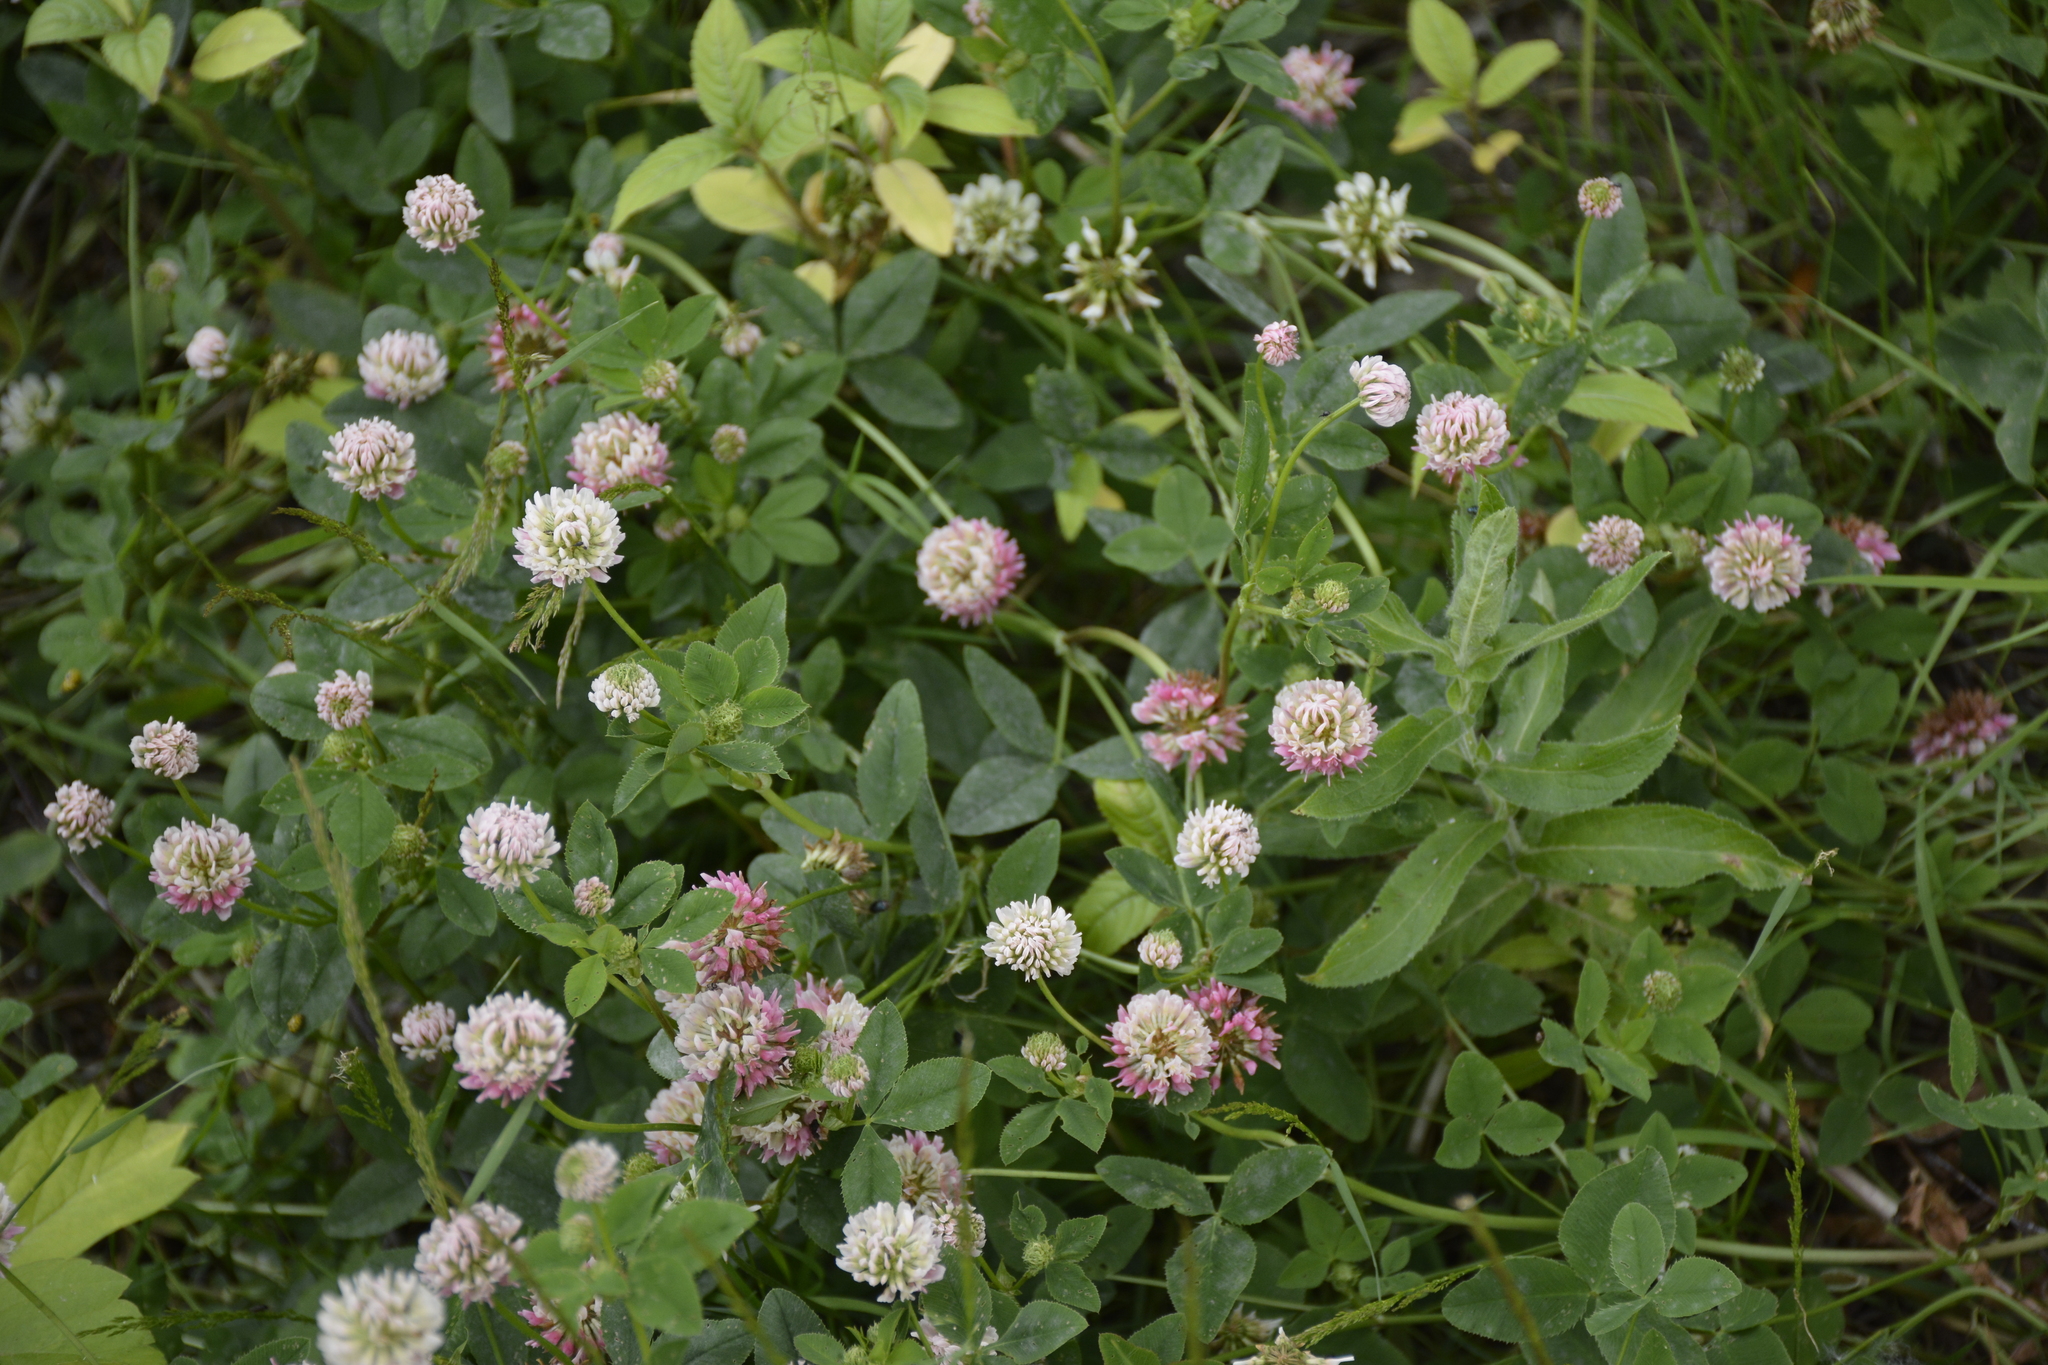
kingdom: Plantae
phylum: Tracheophyta
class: Magnoliopsida
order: Fabales
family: Fabaceae
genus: Trifolium
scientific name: Trifolium hybridum
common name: Alsike clover
